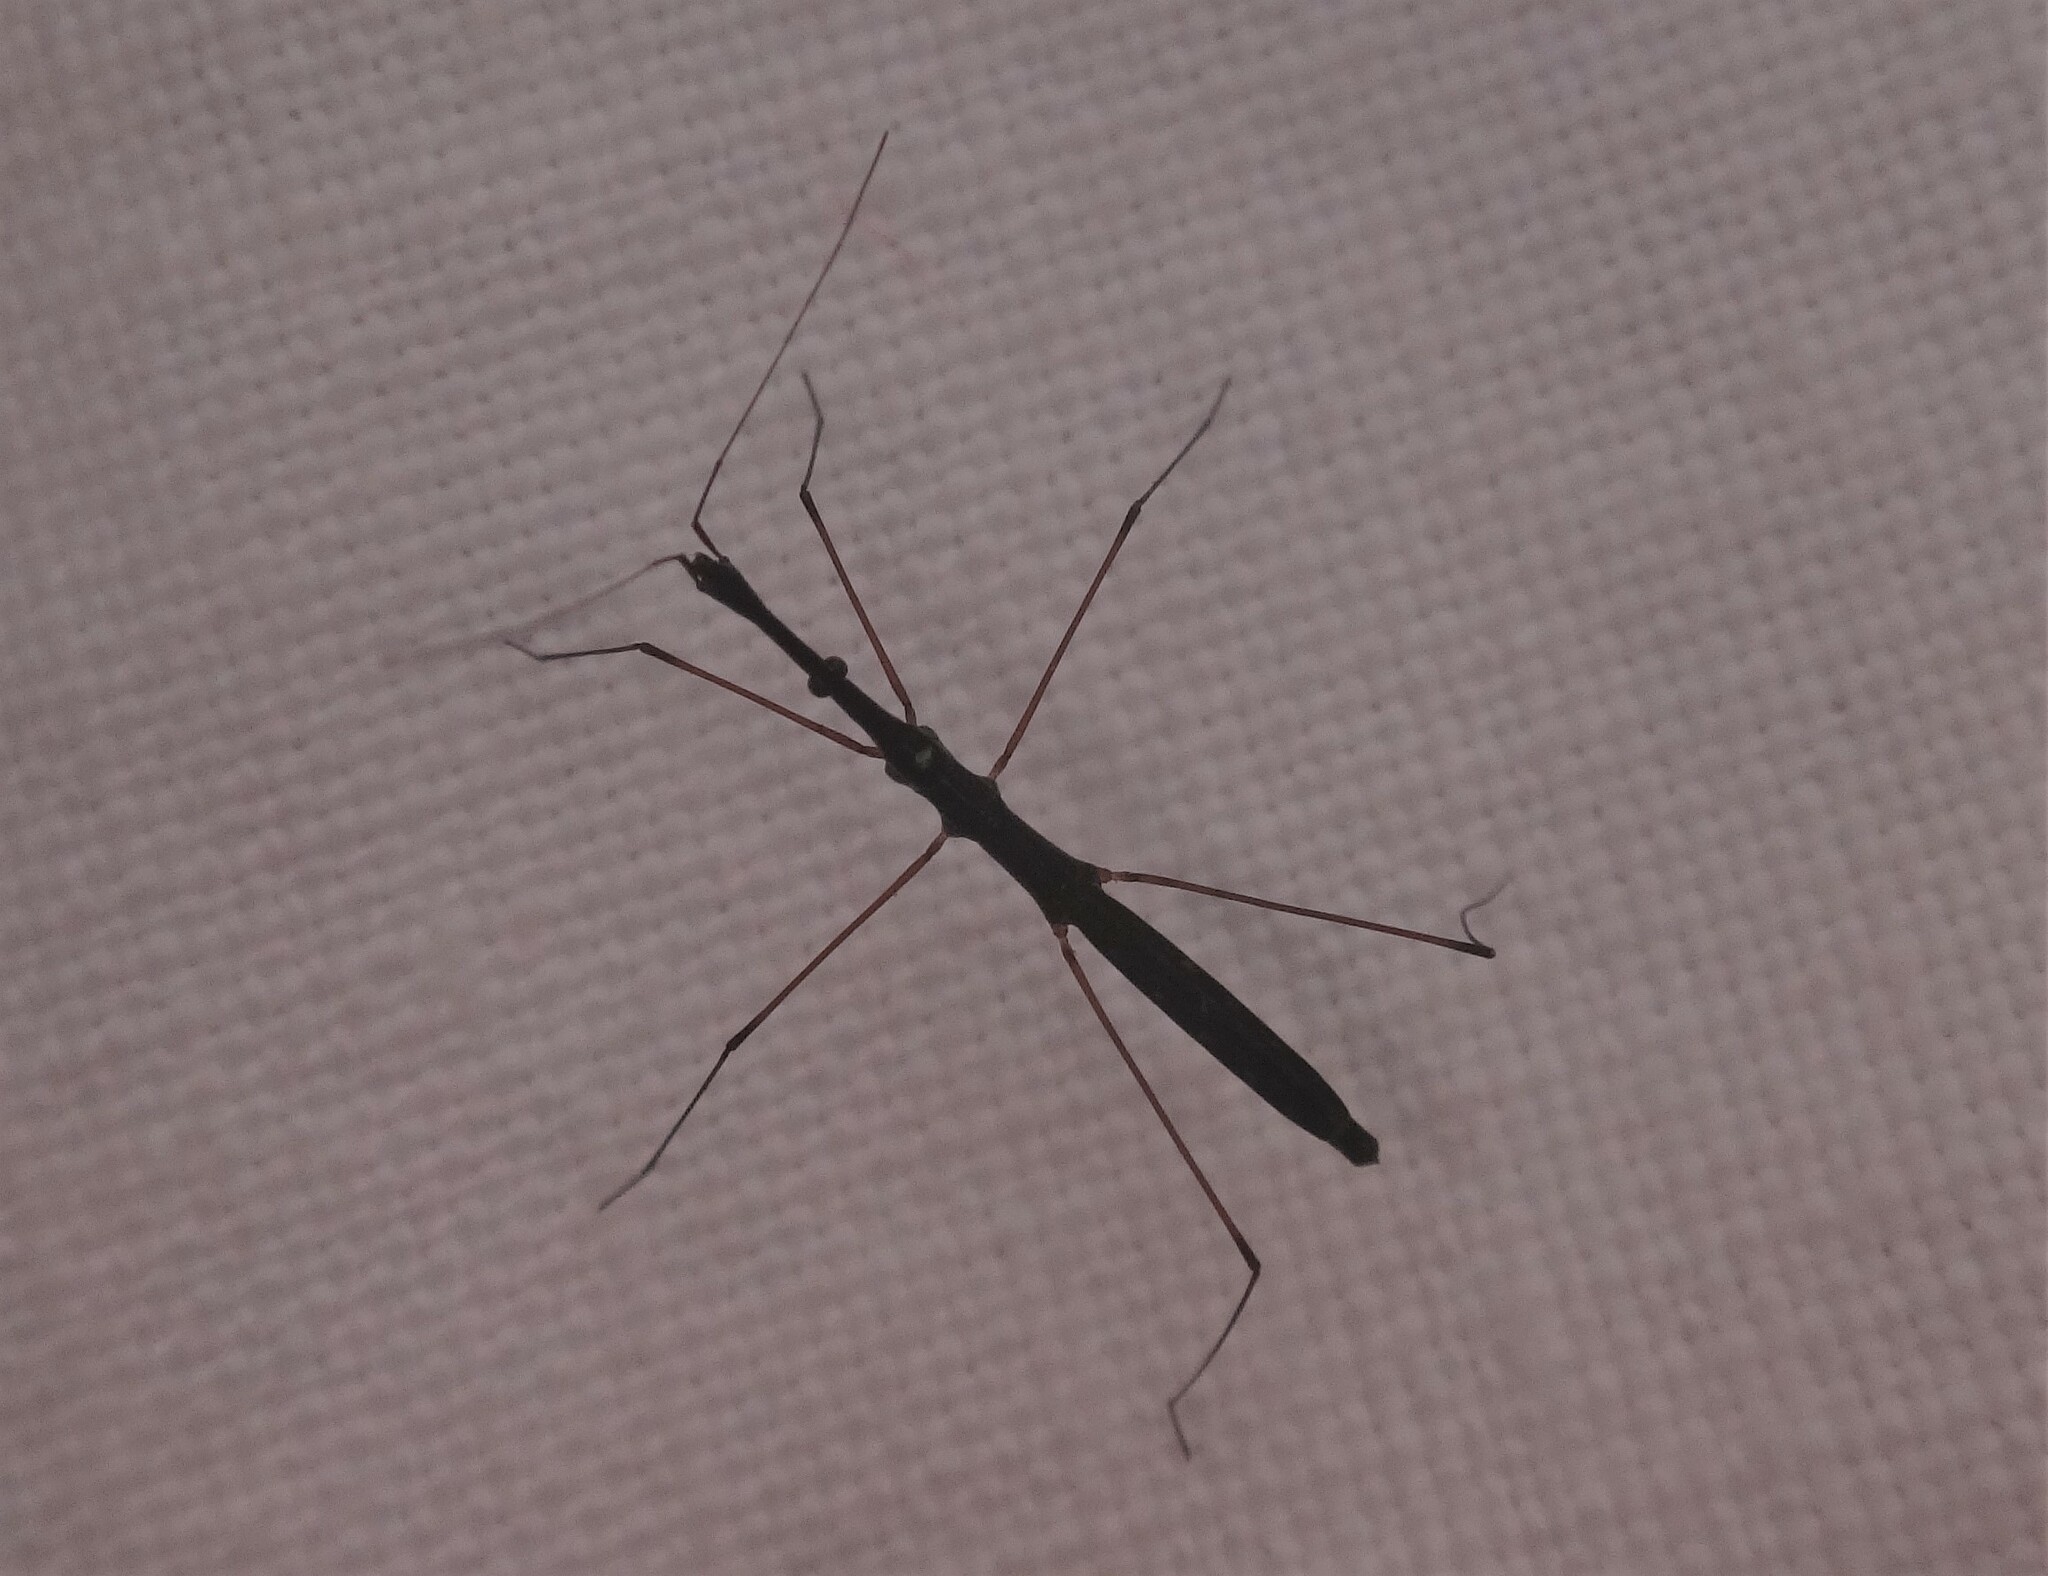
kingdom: Animalia
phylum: Arthropoda
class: Insecta
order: Hemiptera
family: Hydrometridae
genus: Hydrometra
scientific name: Hydrometra stagnorum
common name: Water measurer
